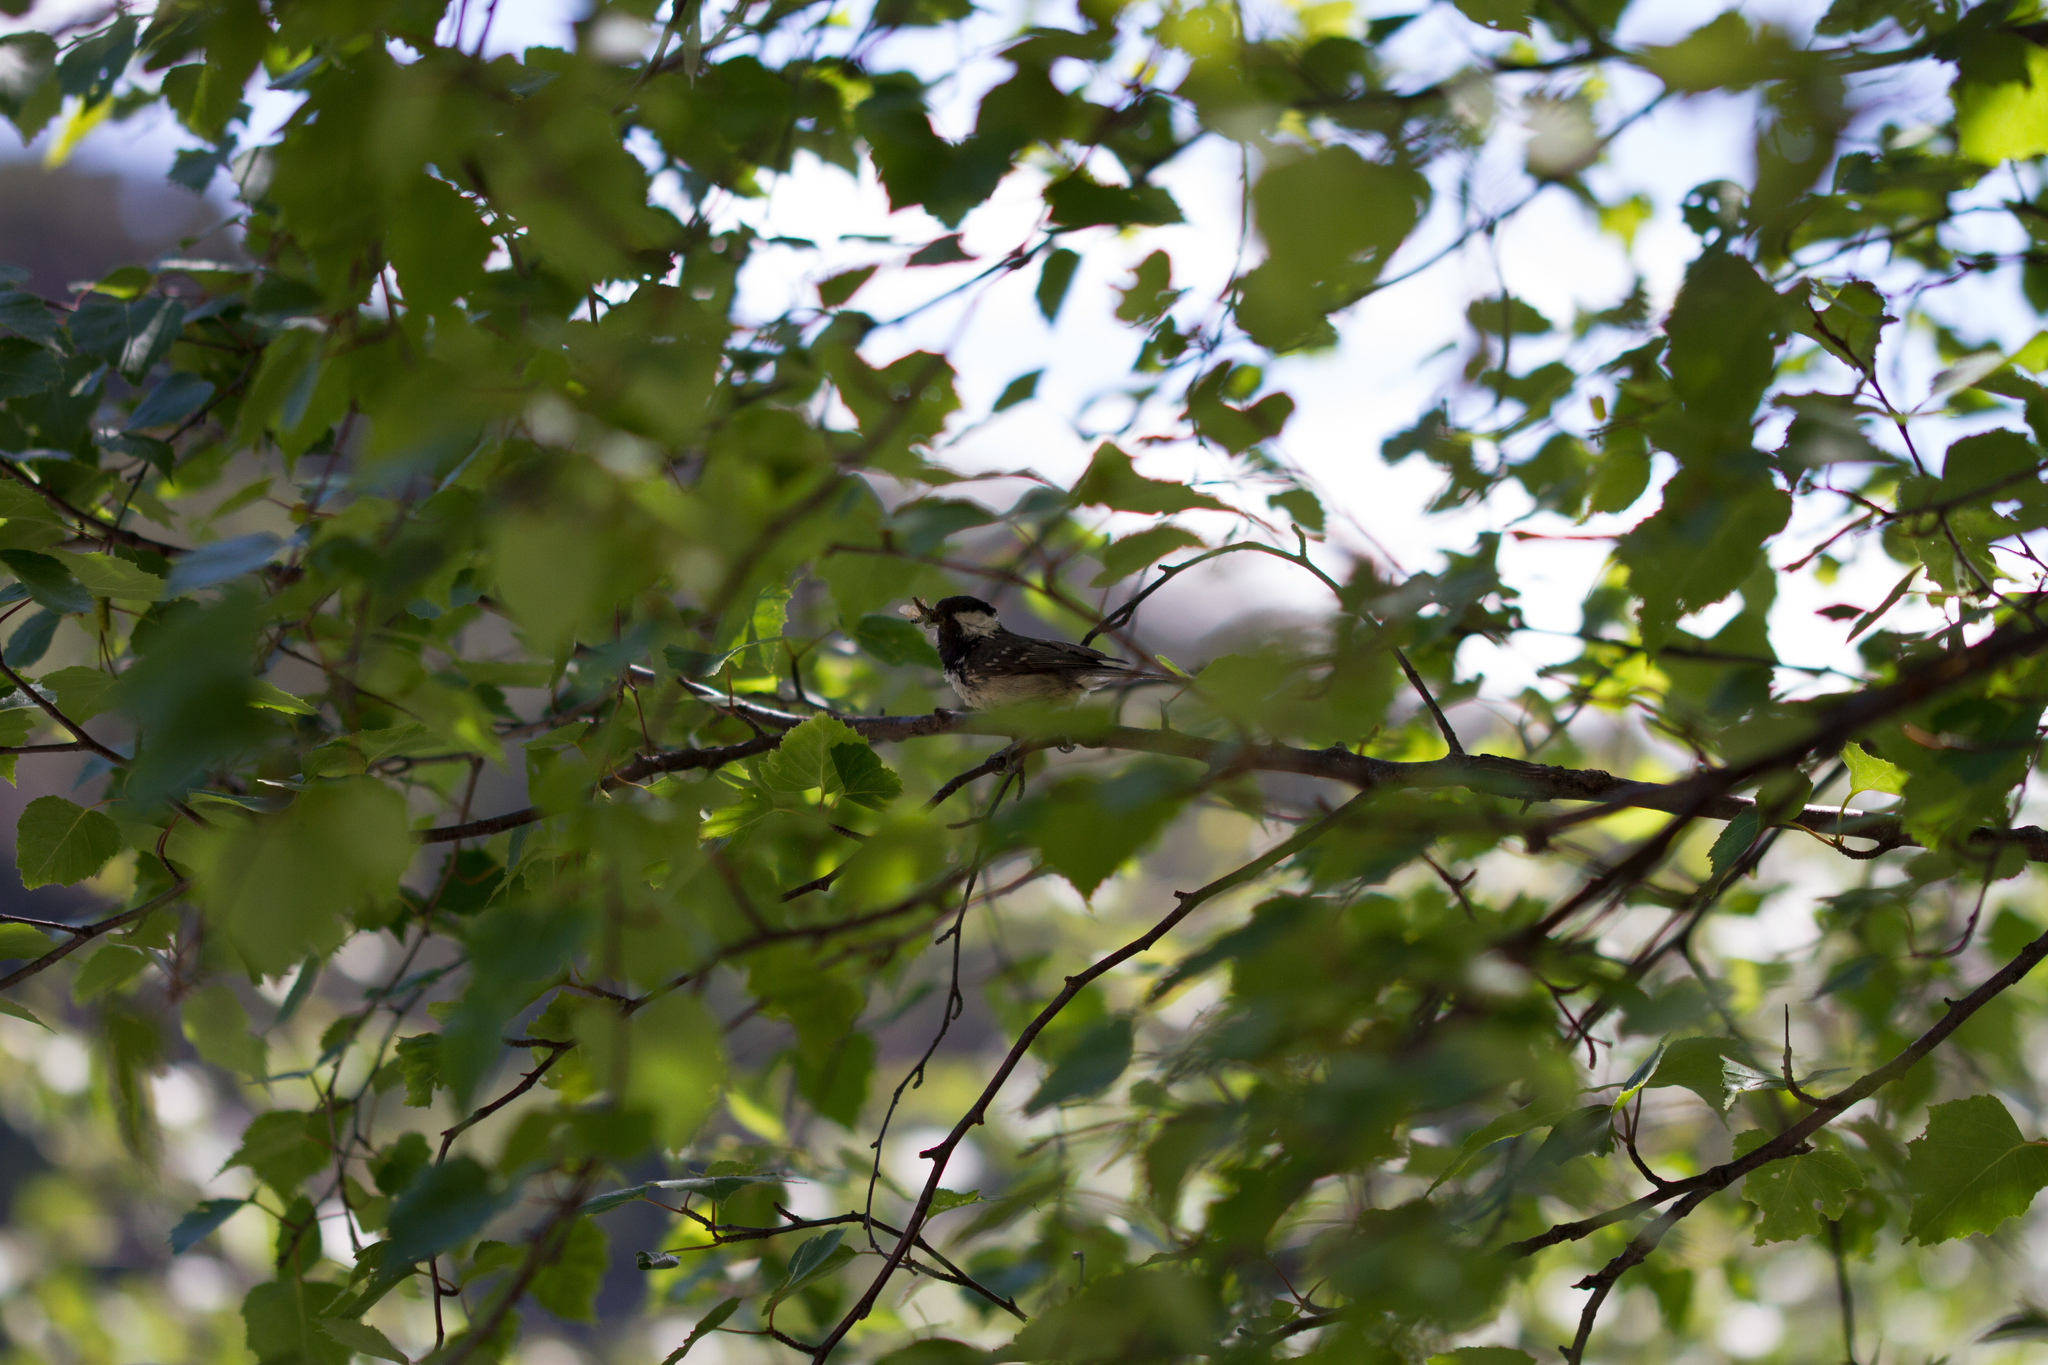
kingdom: Animalia
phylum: Chordata
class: Aves
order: Passeriformes
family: Paridae
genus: Periparus
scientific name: Periparus ater
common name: Coal tit
